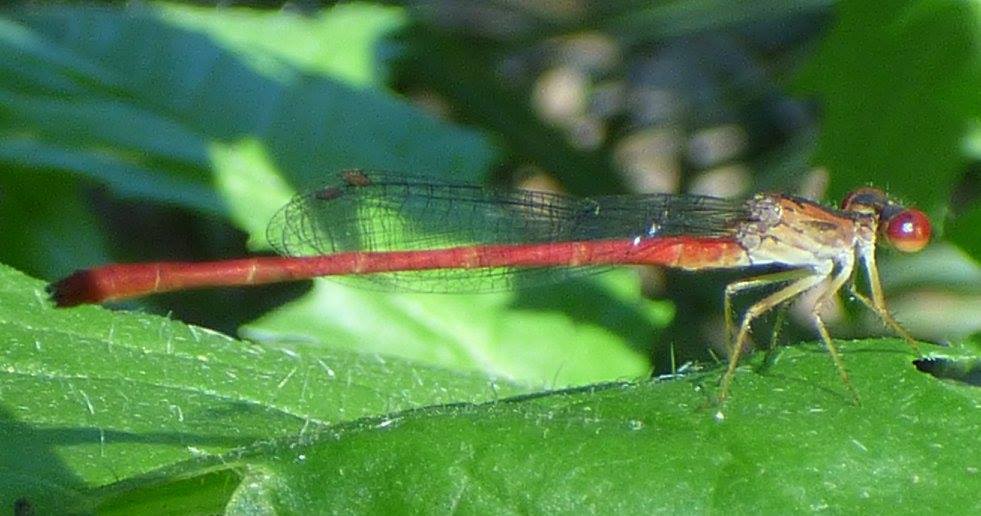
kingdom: Animalia
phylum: Arthropoda
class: Insecta
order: Odonata
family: Coenagrionidae
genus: Telebasis
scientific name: Telebasis byersi
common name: Duckweed firetail
